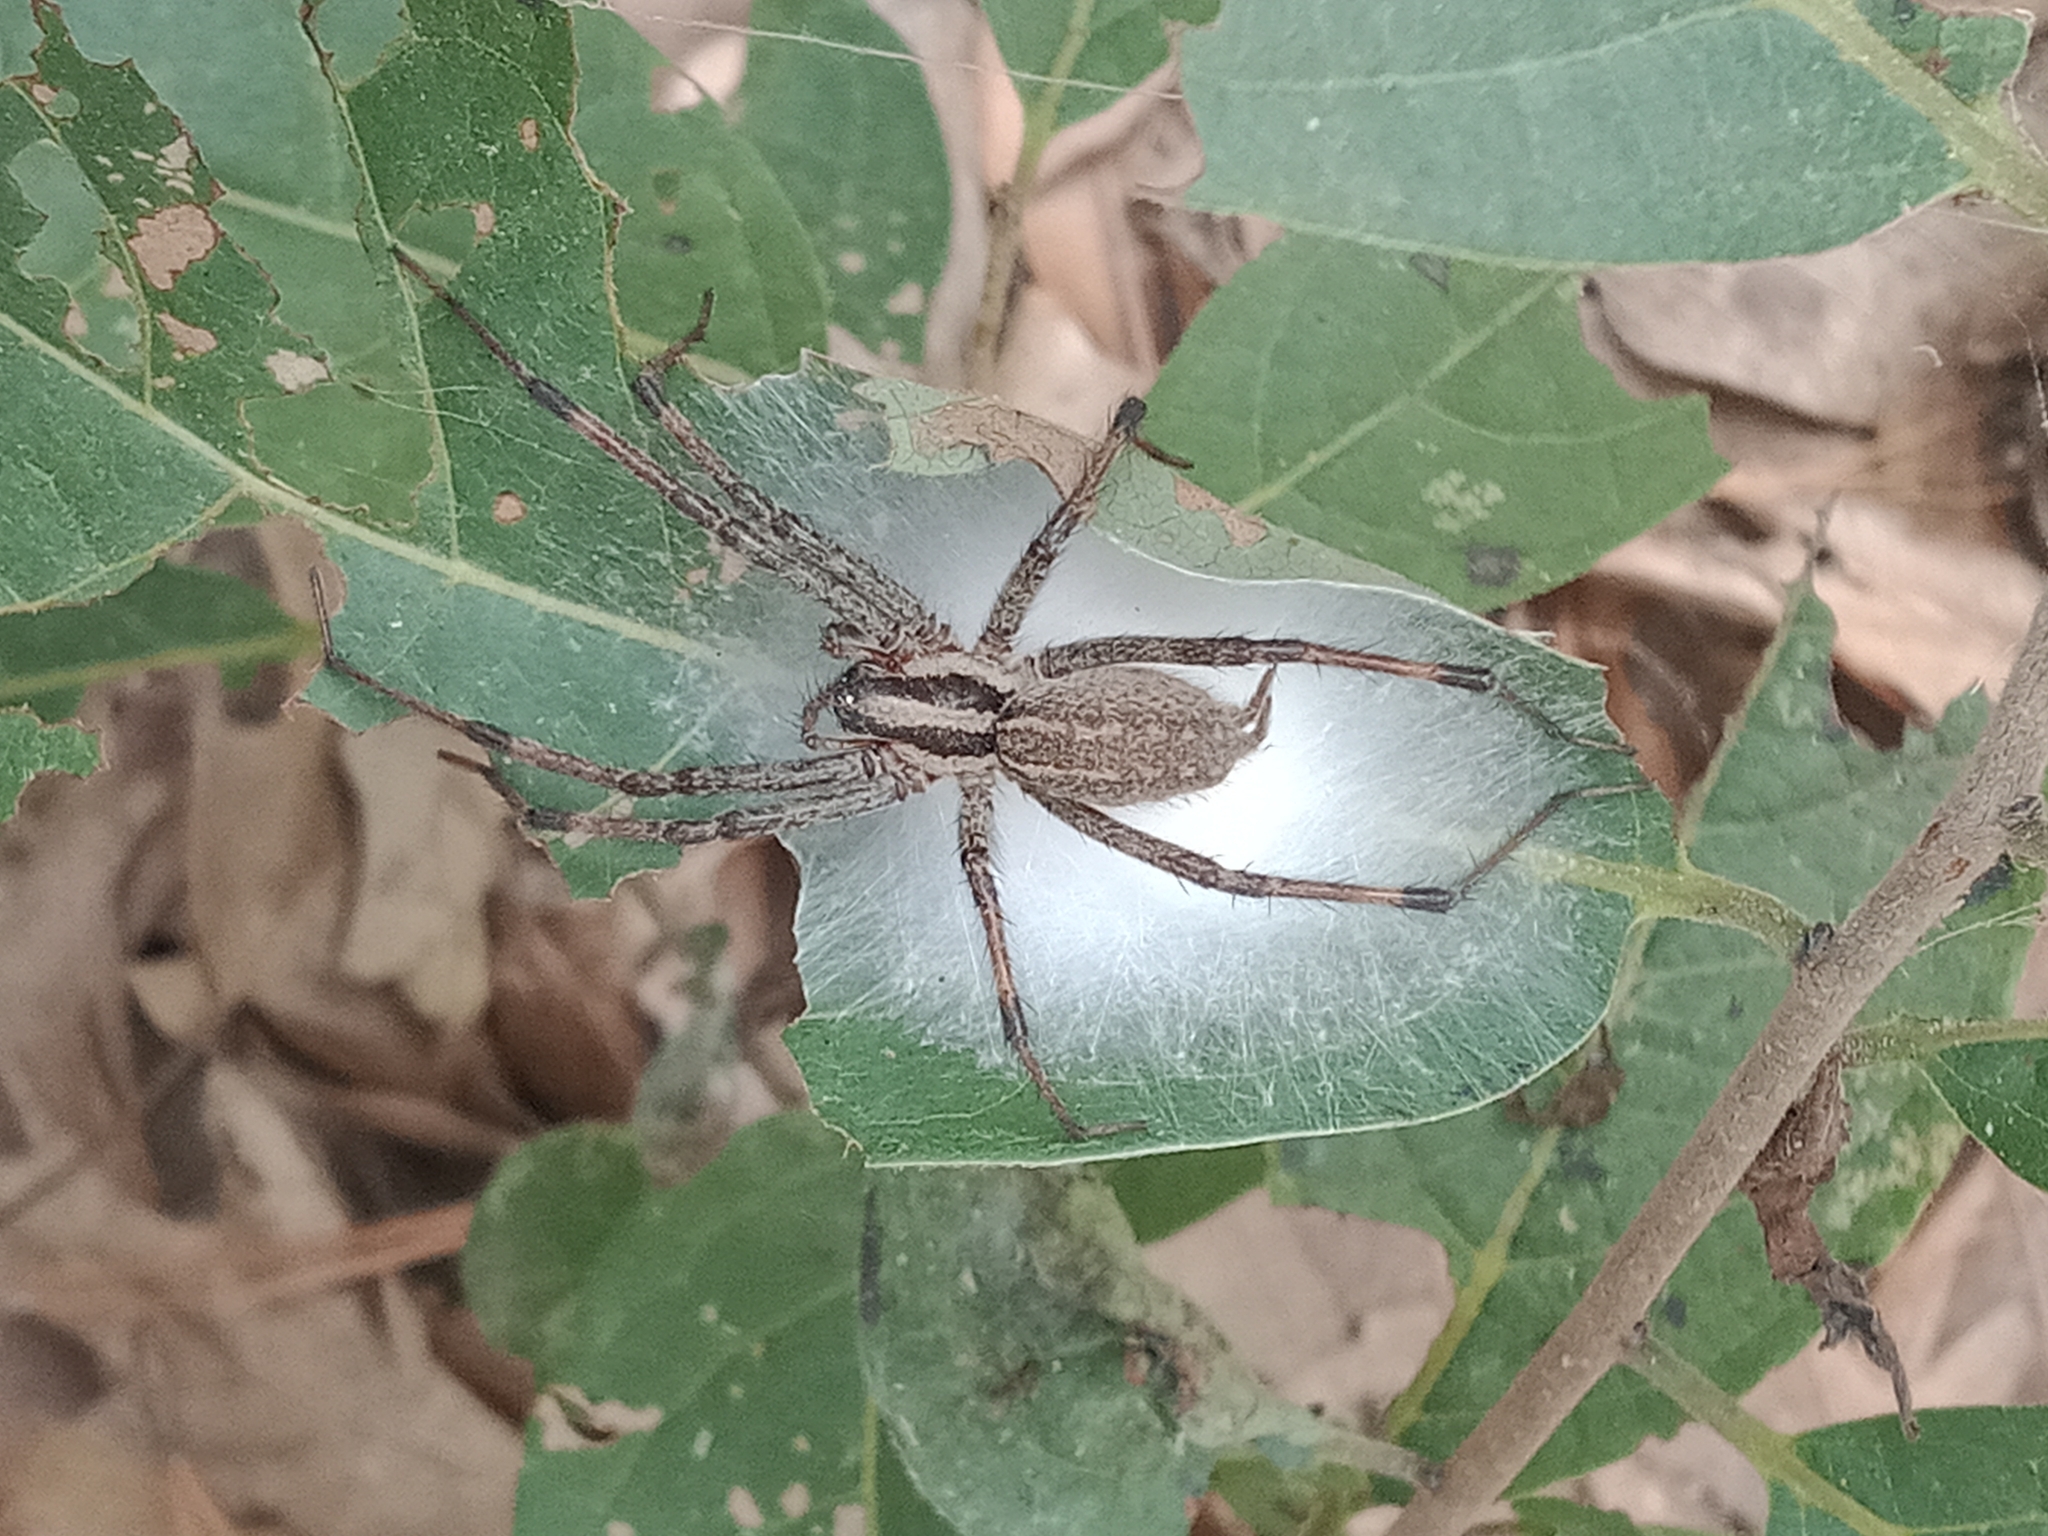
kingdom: Animalia
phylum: Arthropoda
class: Arachnida
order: Araneae
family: Agelenidae
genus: Agelenopsis
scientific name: Agelenopsis
